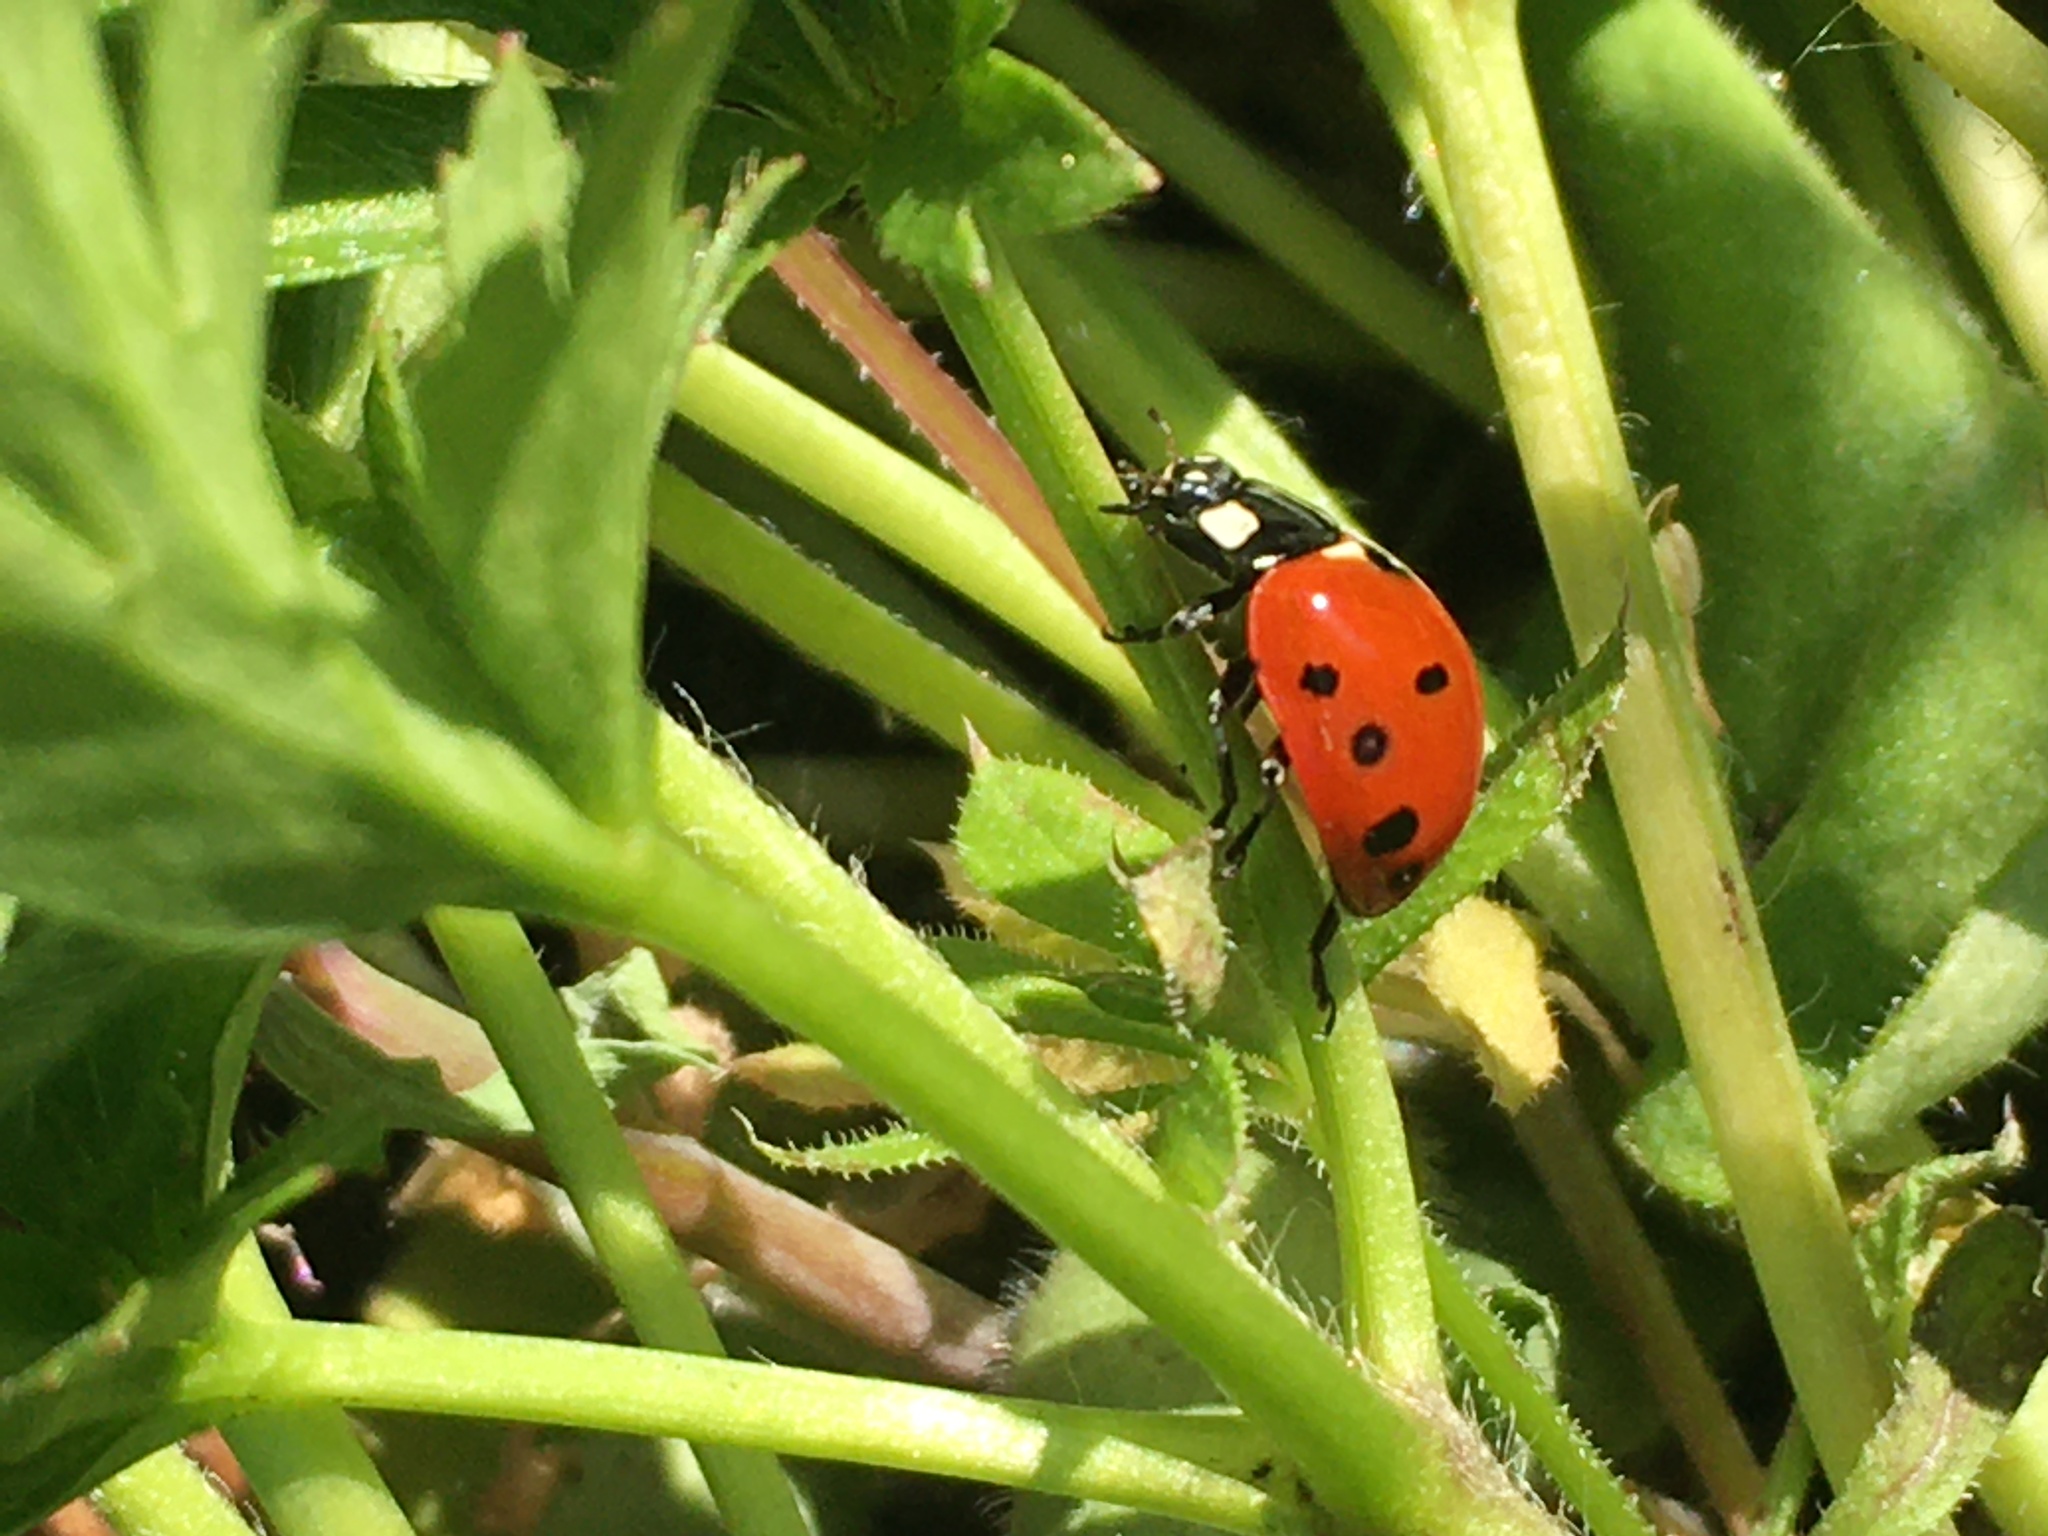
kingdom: Animalia
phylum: Arthropoda
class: Insecta
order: Coleoptera
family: Coccinellidae
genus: Coccinella
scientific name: Coccinella septempunctata
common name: Sevenspotted lady beetle
